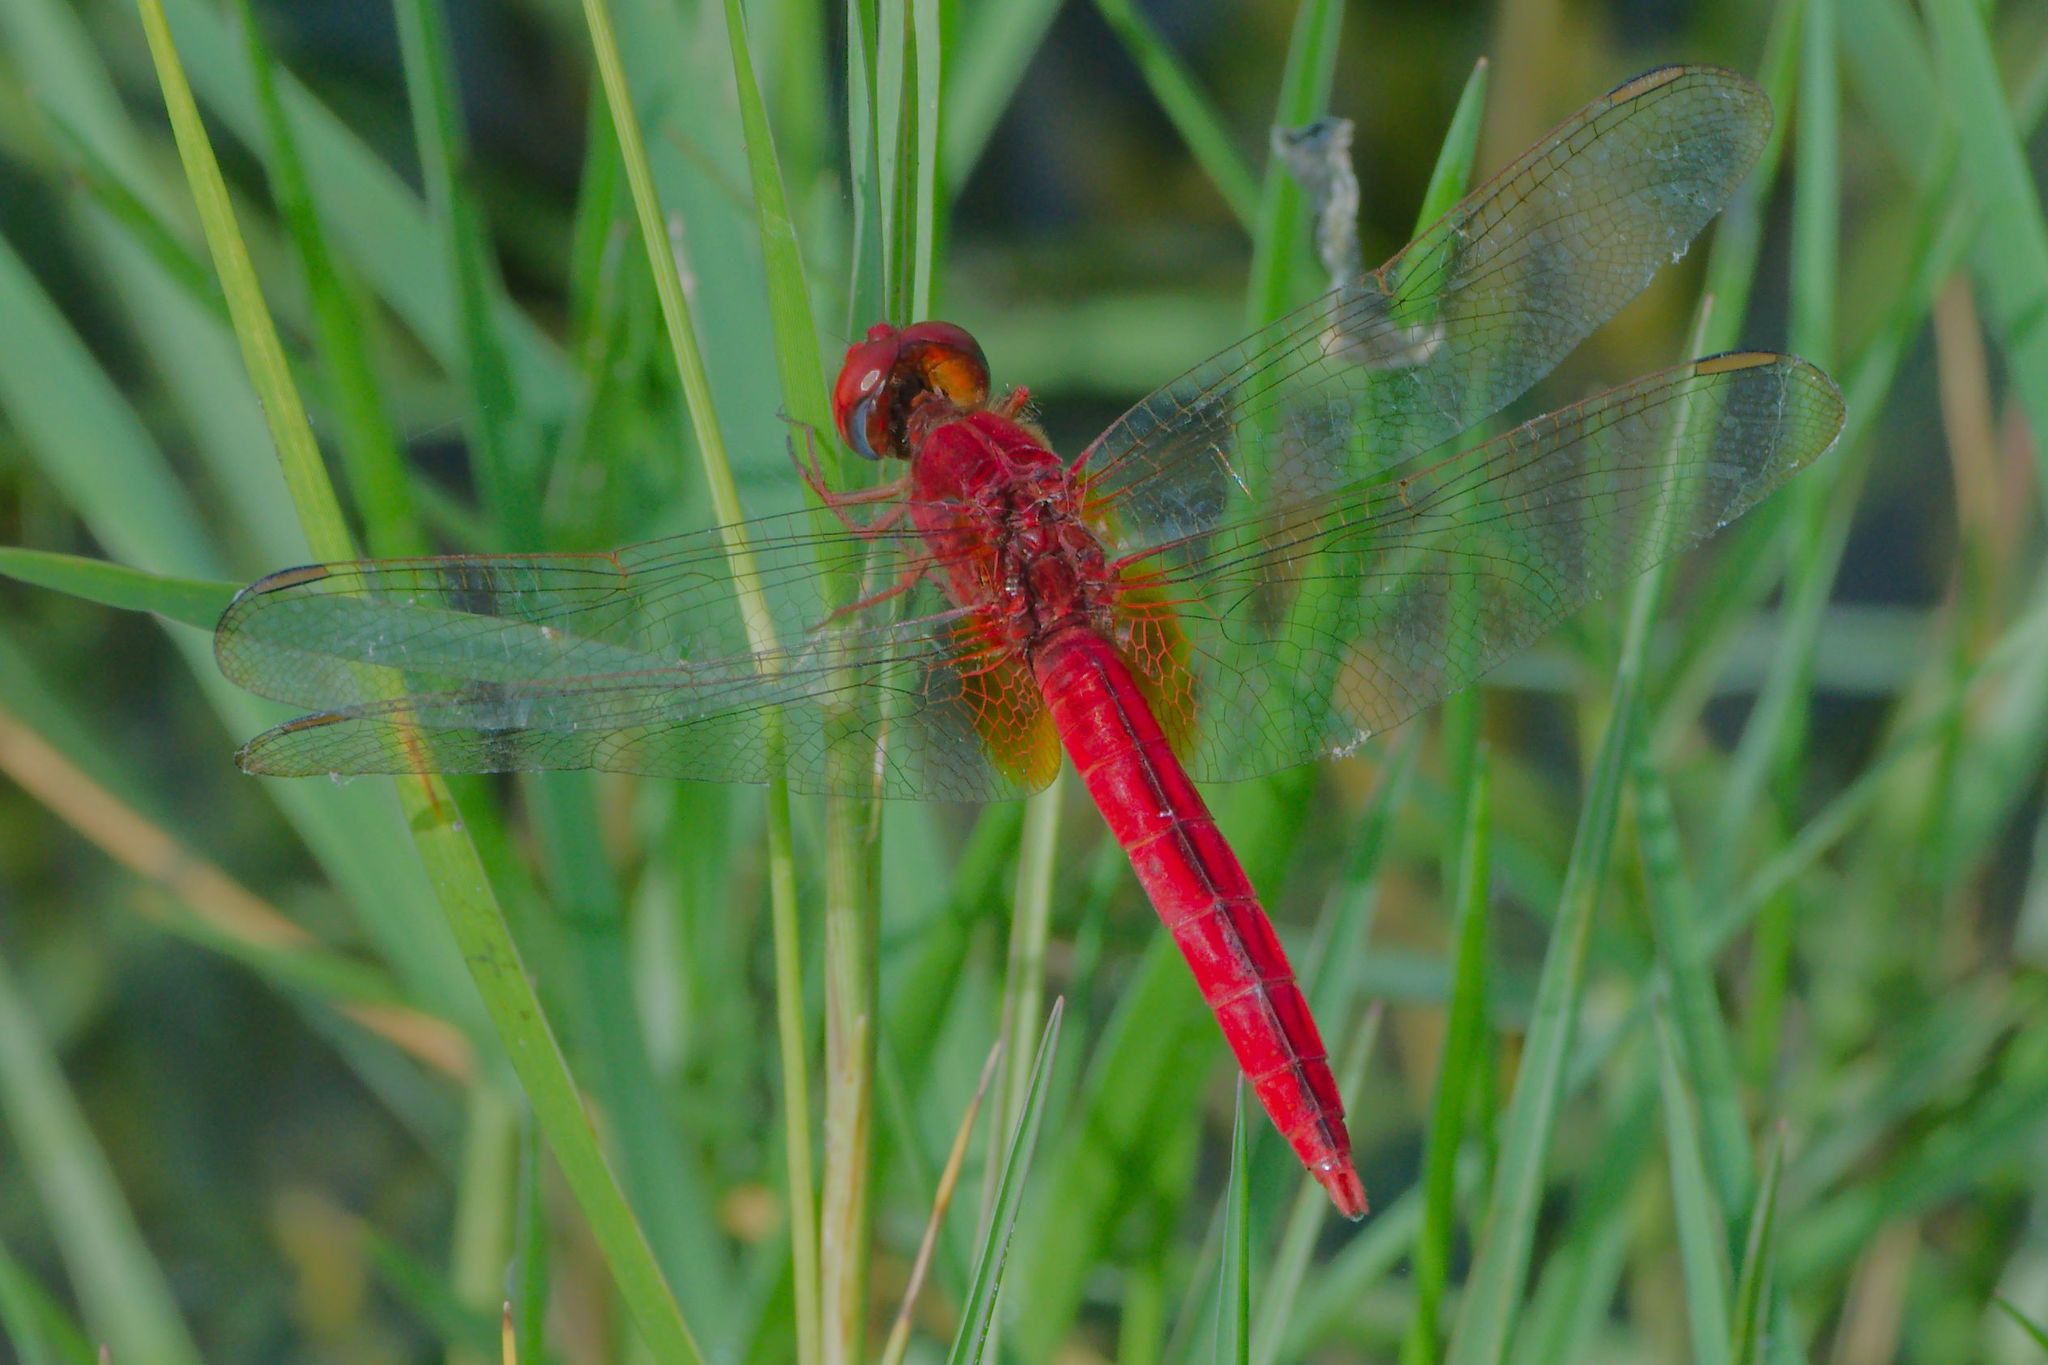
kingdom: Animalia
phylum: Arthropoda
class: Insecta
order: Odonata
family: Libellulidae
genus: Crocothemis
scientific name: Crocothemis servilia
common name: Scarlet skimmer
